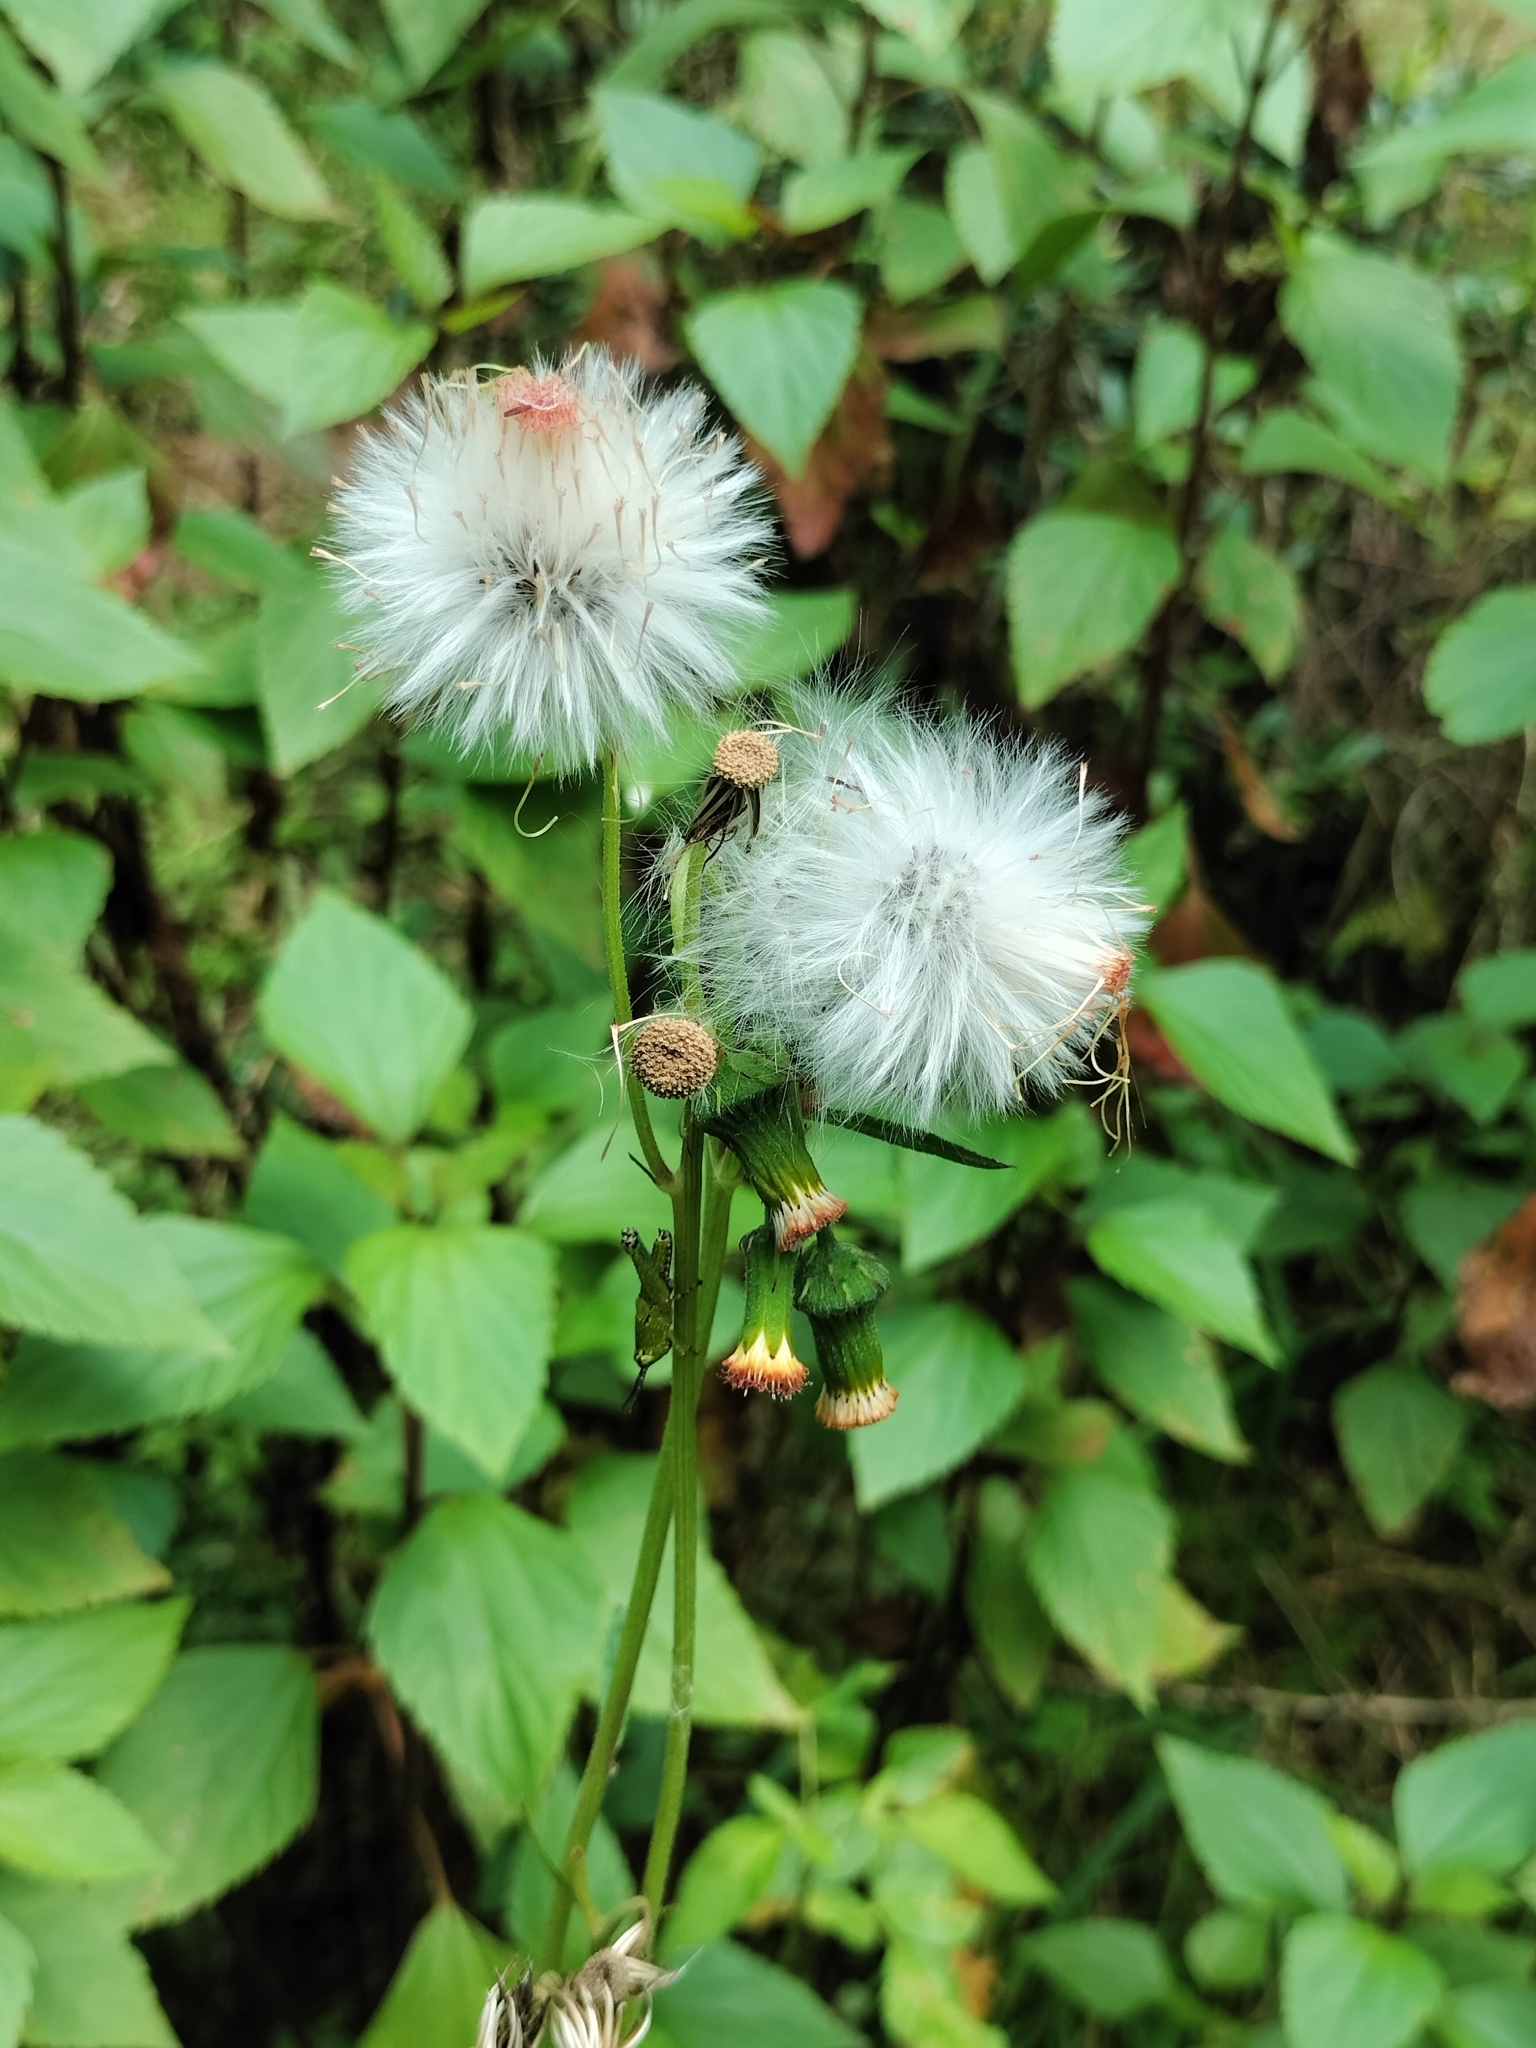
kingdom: Plantae
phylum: Tracheophyta
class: Magnoliopsida
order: Asterales
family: Asteraceae
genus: Crassocephalum
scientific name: Crassocephalum crepidioides
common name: Redflower ragleaf
